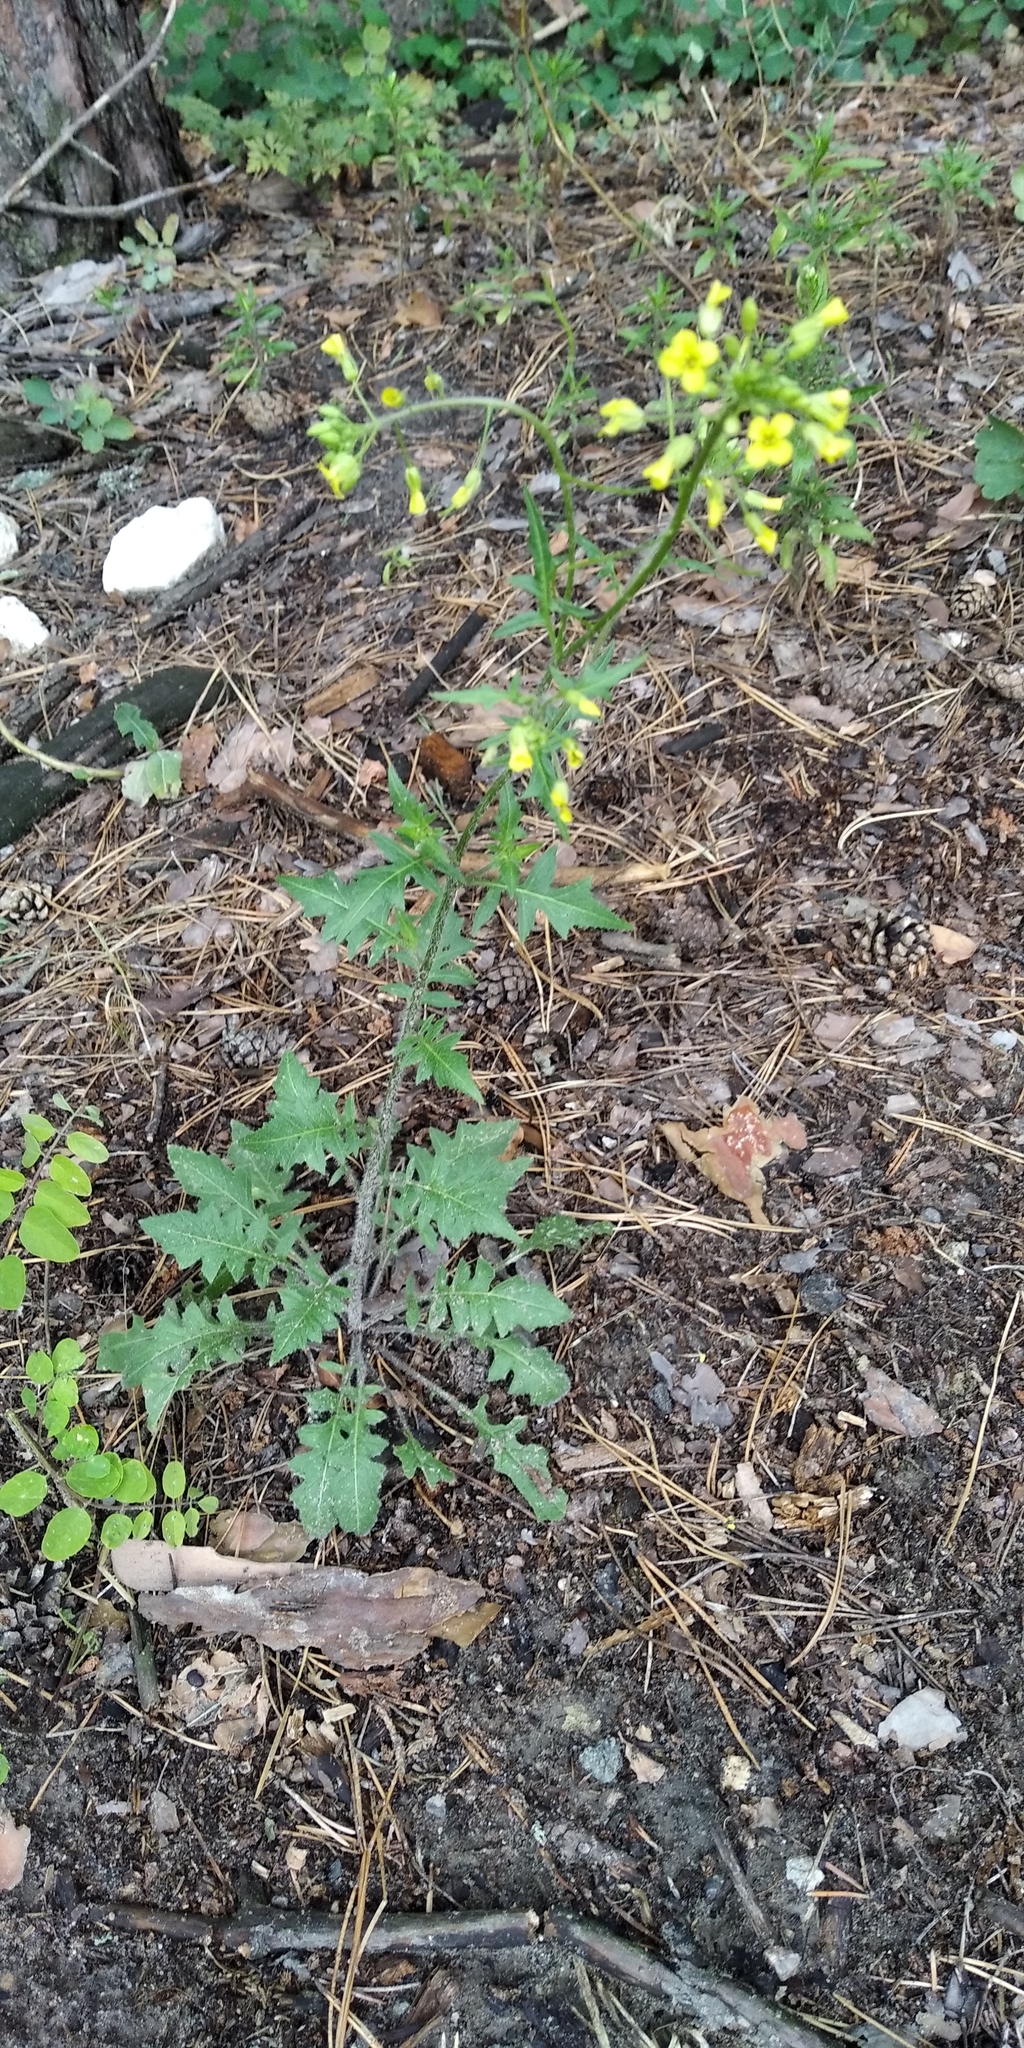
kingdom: Plantae
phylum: Tracheophyta
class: Magnoliopsida
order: Brassicales
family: Brassicaceae
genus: Sisymbrium
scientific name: Sisymbrium loeselii
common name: False london-rocket
